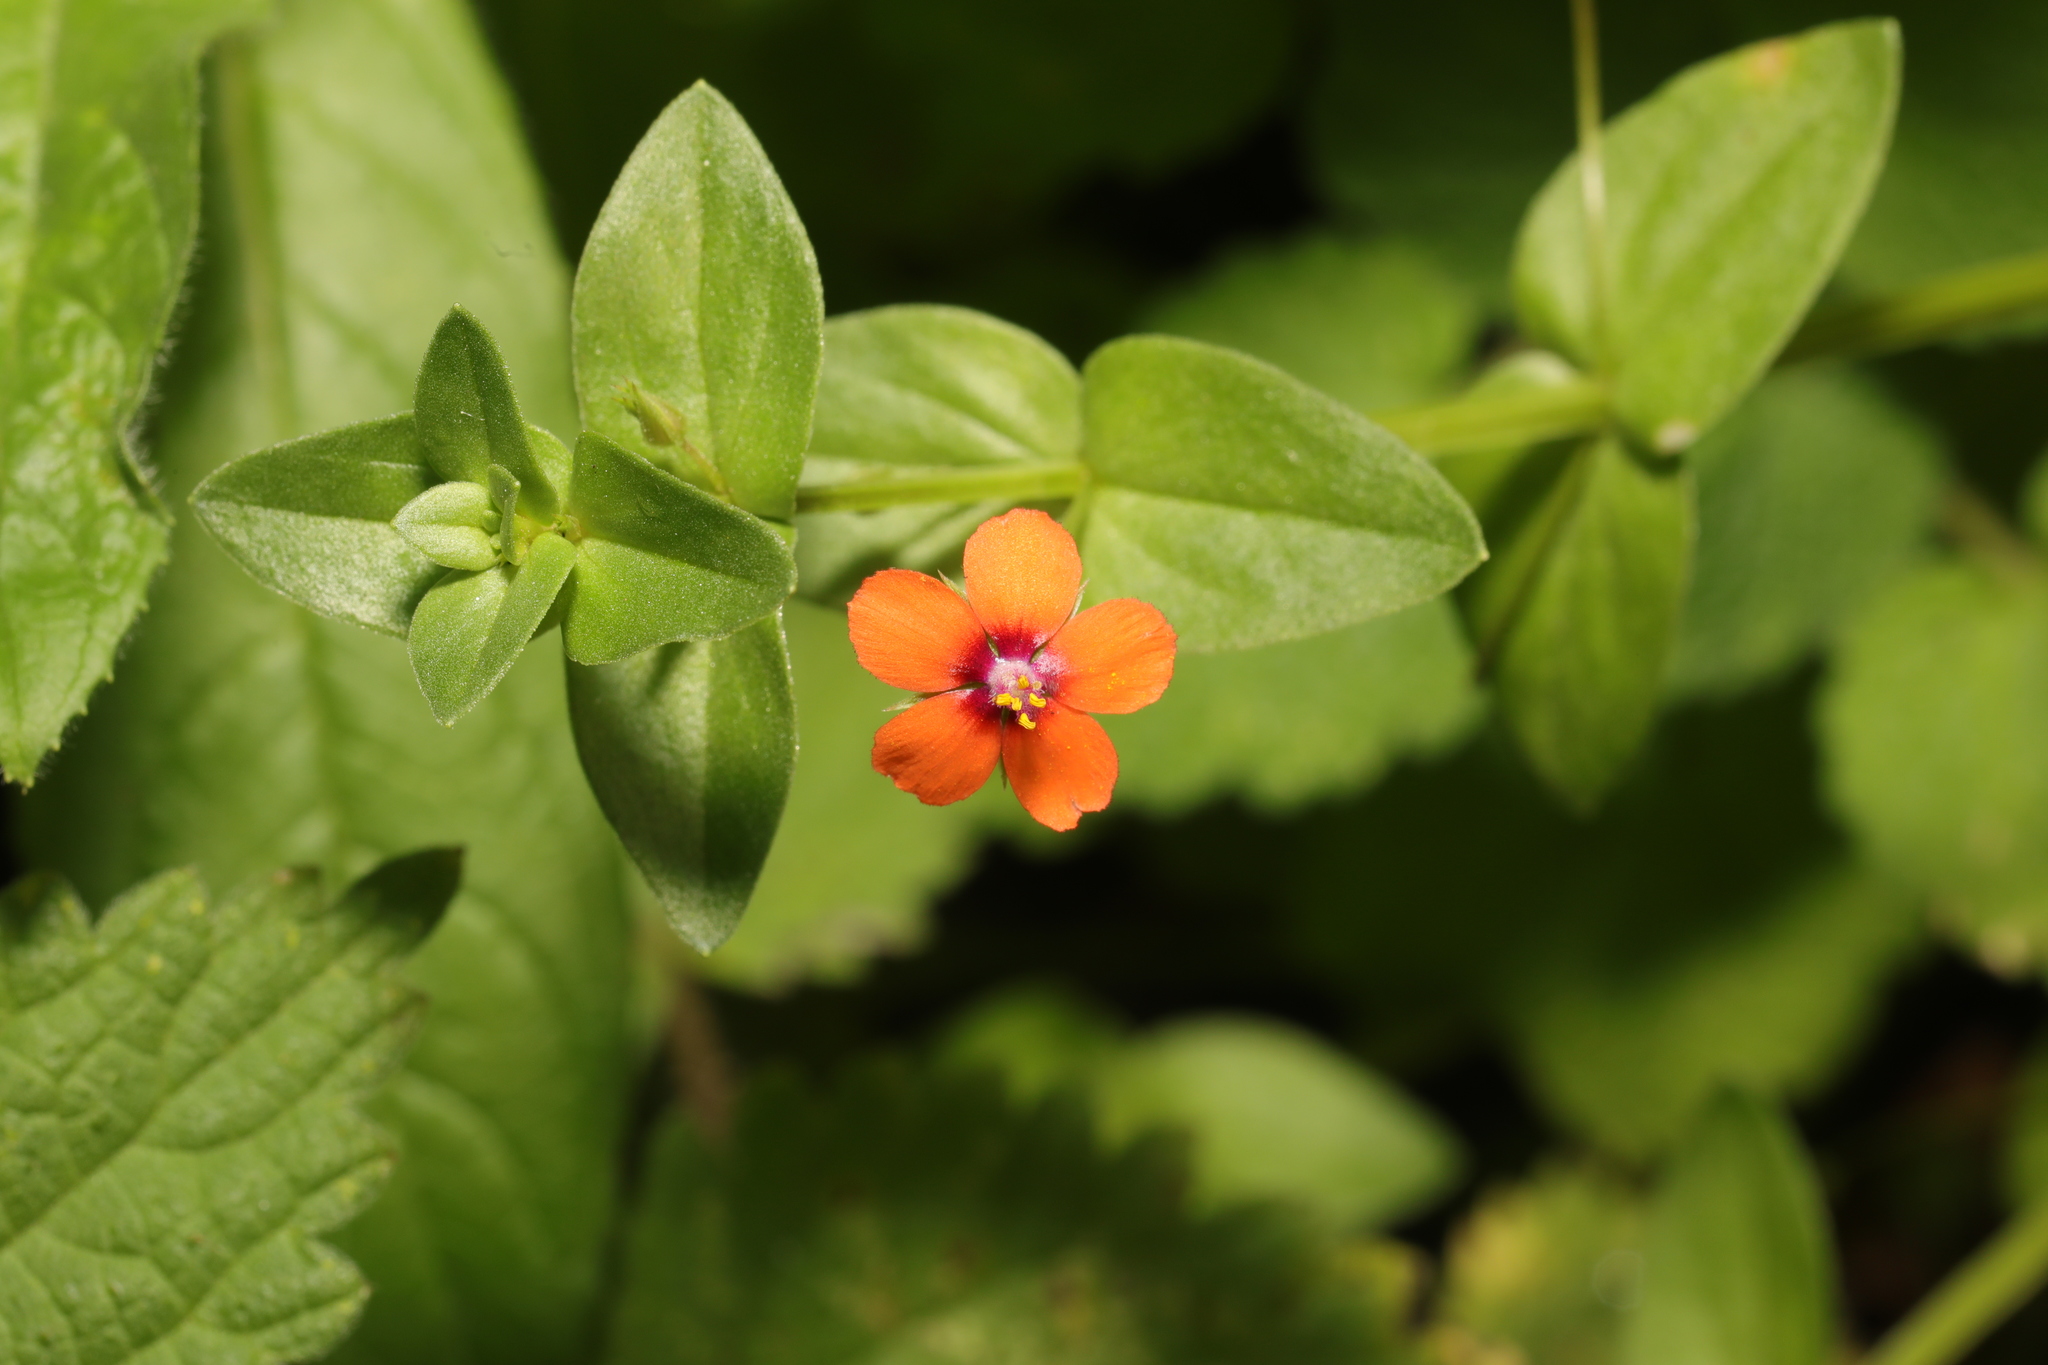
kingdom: Plantae
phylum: Tracheophyta
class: Magnoliopsida
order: Ericales
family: Primulaceae
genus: Lysimachia
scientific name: Lysimachia arvensis
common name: Scarlet pimpernel
